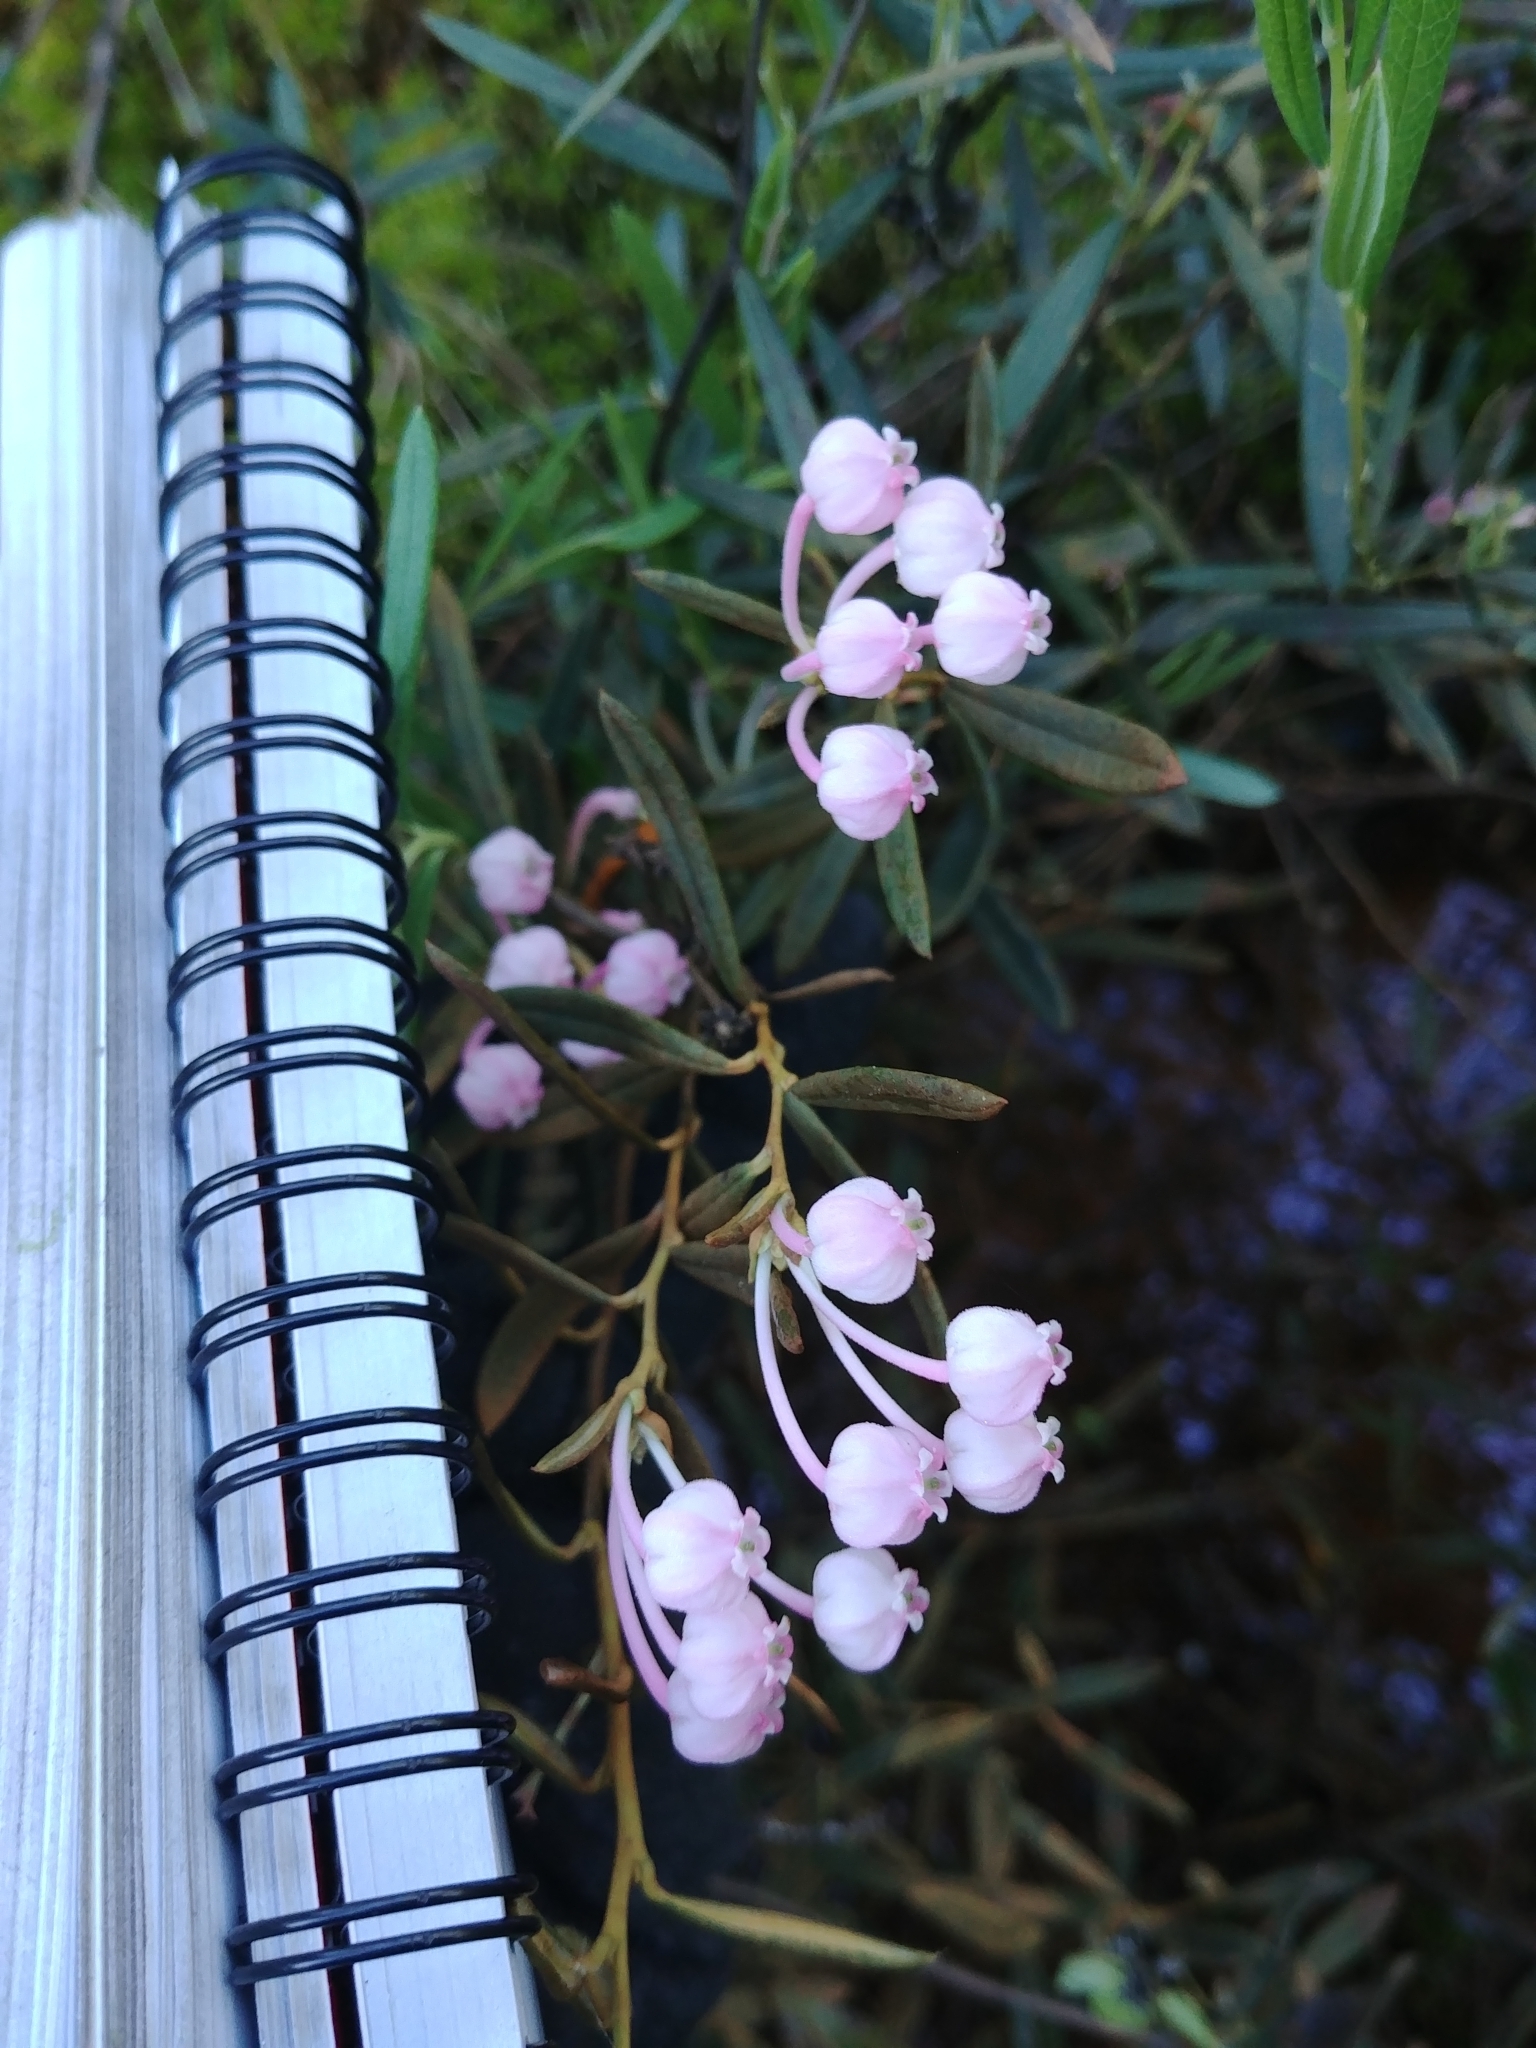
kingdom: Plantae
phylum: Tracheophyta
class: Magnoliopsida
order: Ericales
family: Ericaceae
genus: Andromeda
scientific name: Andromeda polifolia
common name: Bog-rosemary
